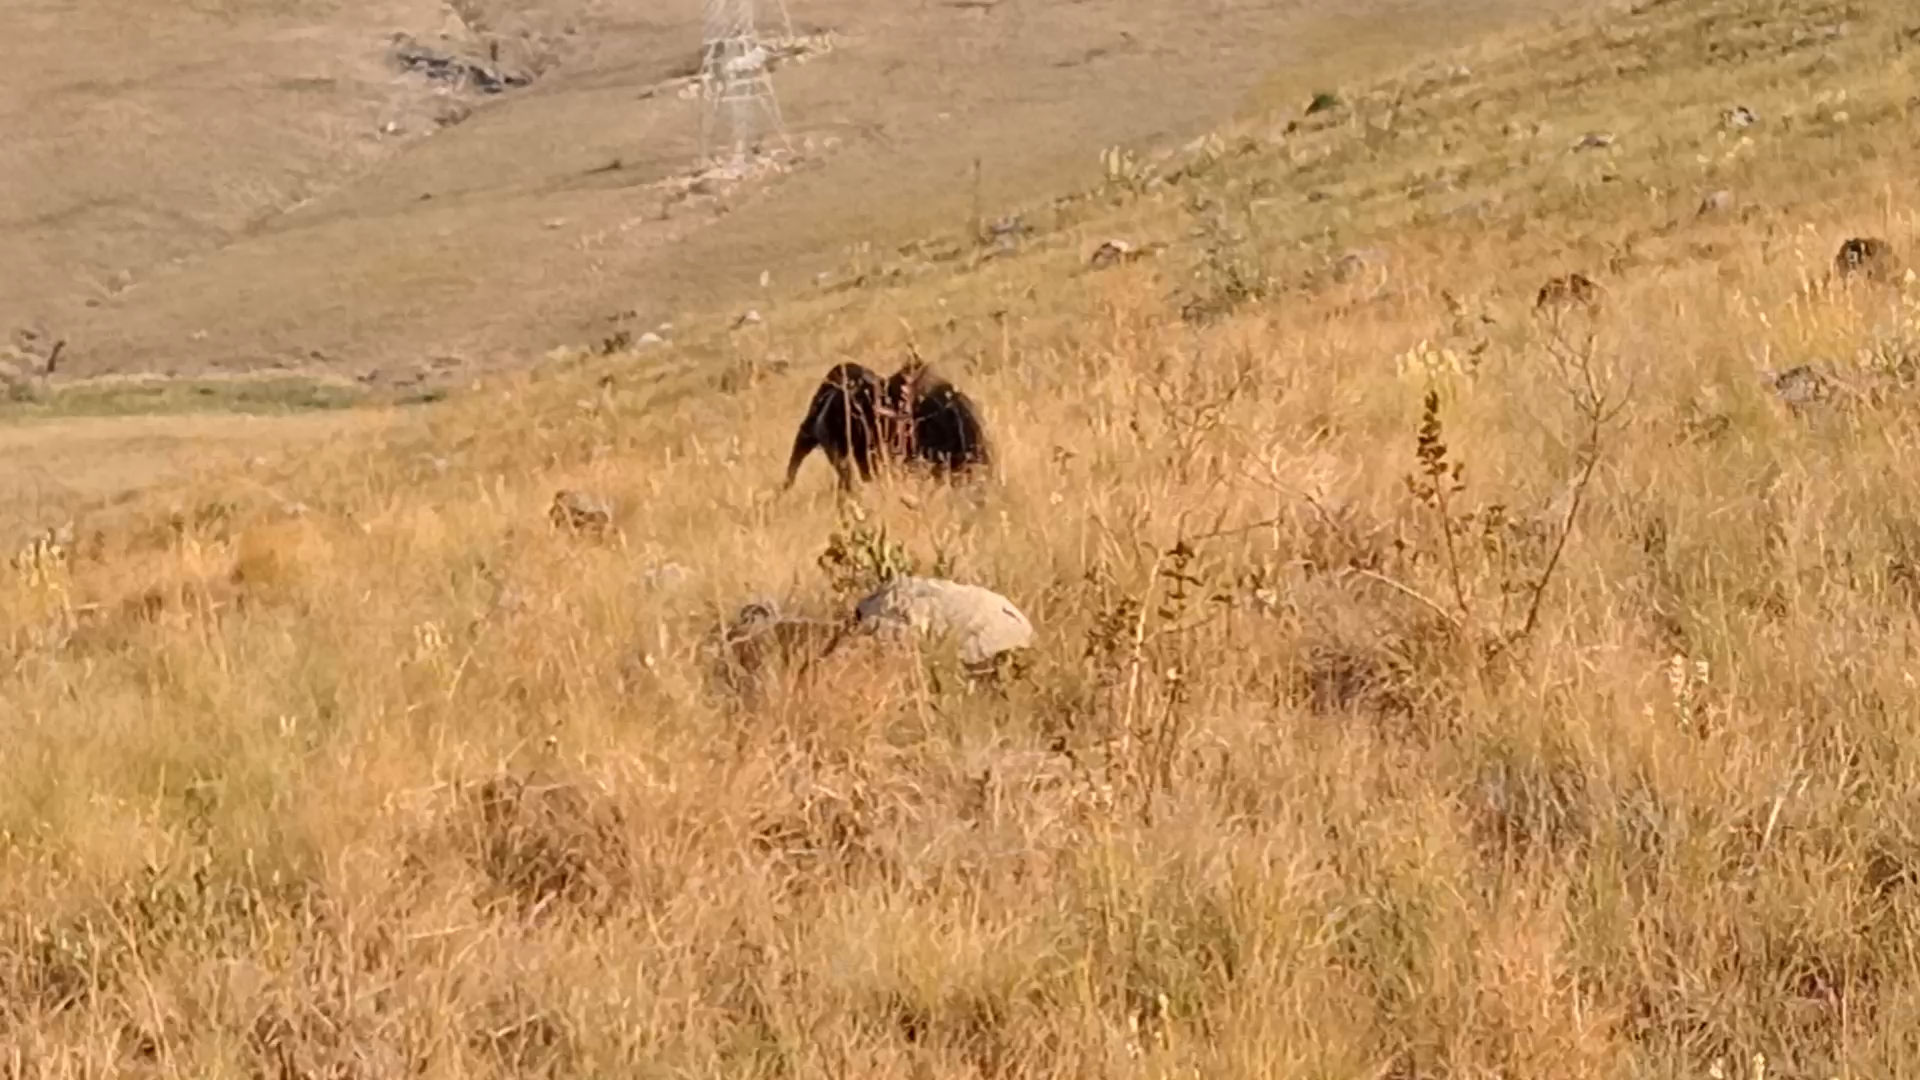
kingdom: Animalia
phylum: Chordata
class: Mammalia
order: Pilosa
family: Myrmecophagidae
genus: Myrmecophaga
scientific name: Myrmecophaga tridactyla
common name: Giant anteater
